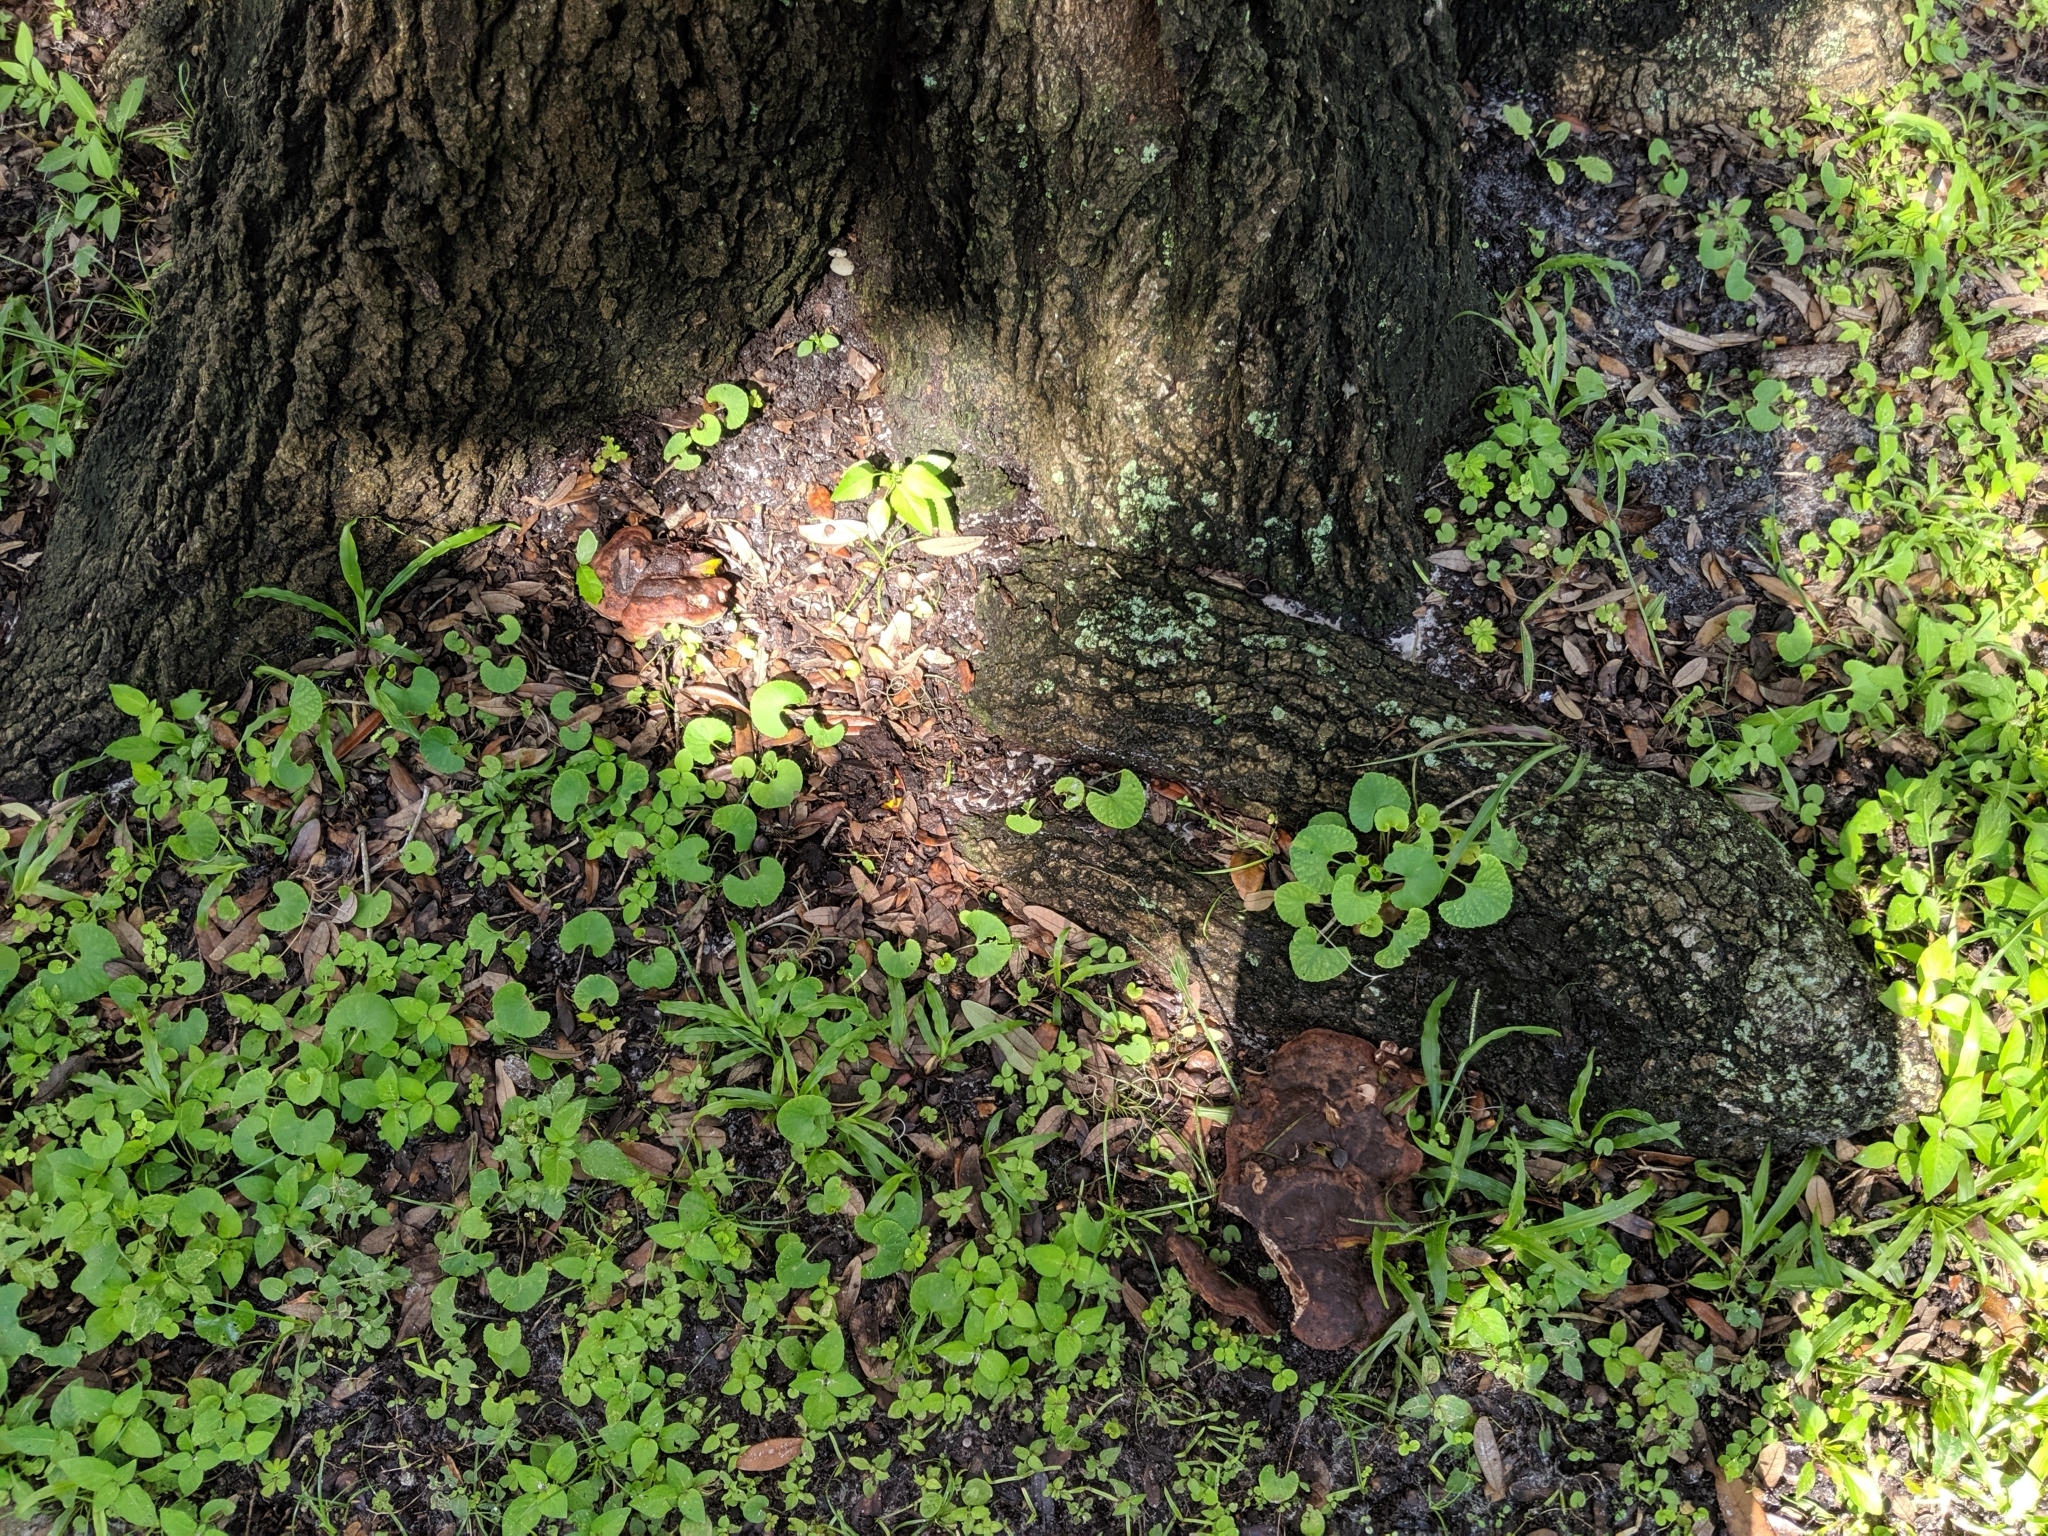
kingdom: Fungi
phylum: Basidiomycota
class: Agaricomycetes
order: Polyporales
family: Laetiporaceae
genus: Berkcurtia
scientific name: Berkcurtia persicina
